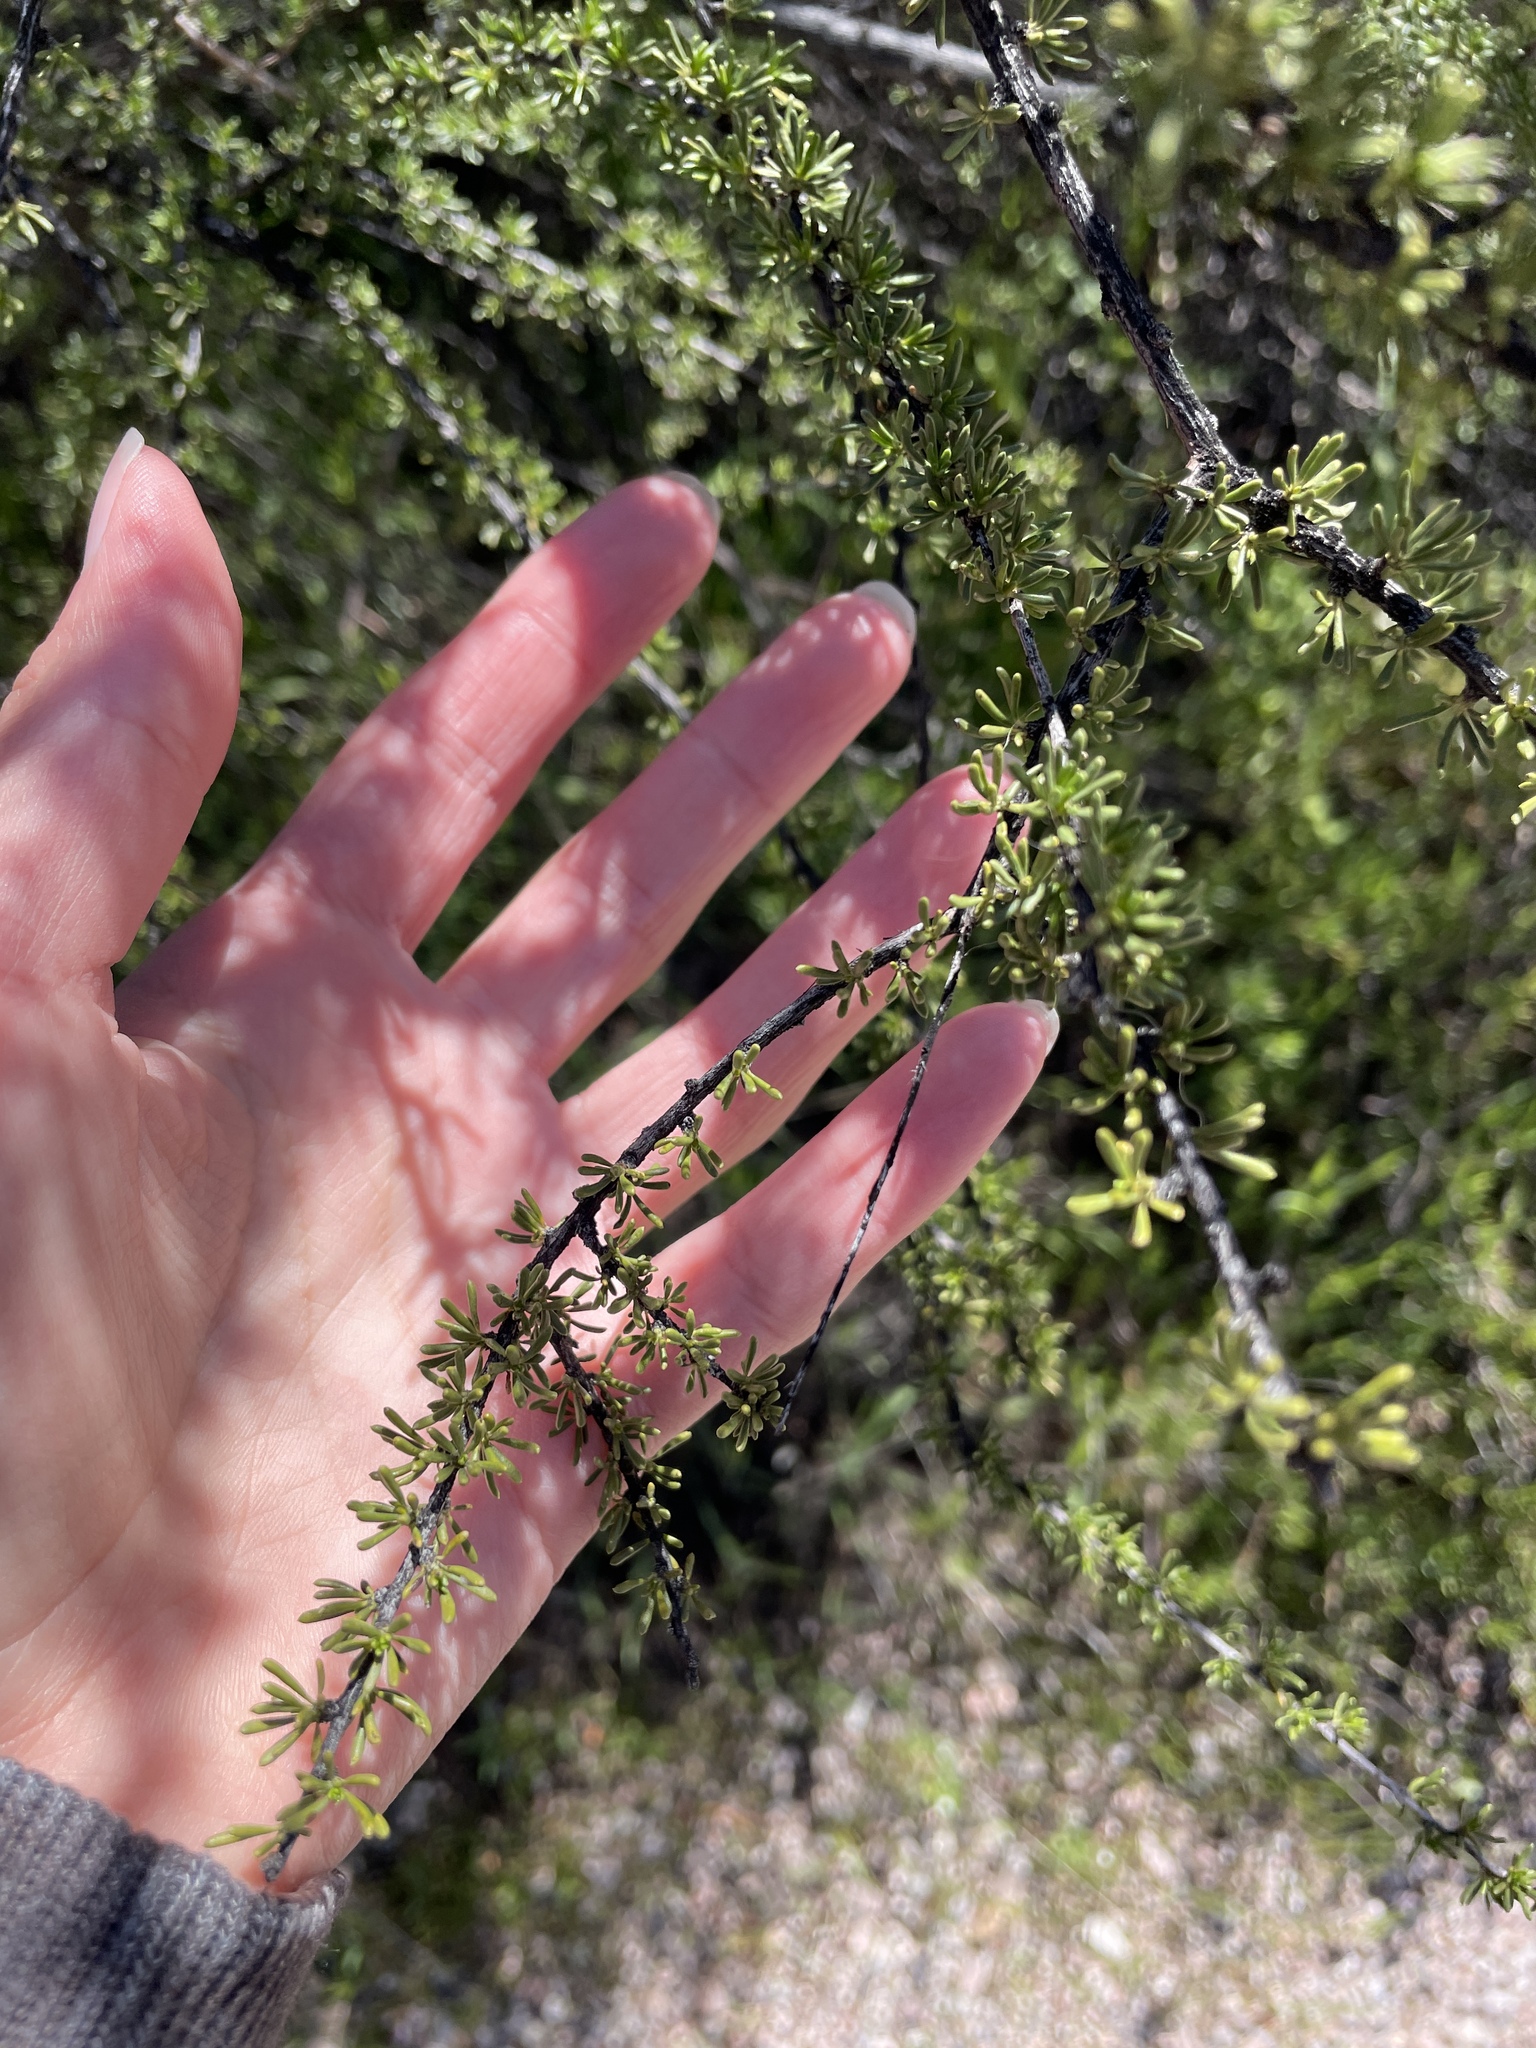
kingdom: Plantae
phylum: Tracheophyta
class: Magnoliopsida
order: Rosales
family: Rosaceae
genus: Adenostoma
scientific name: Adenostoma fasciculatum
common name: Chamise
